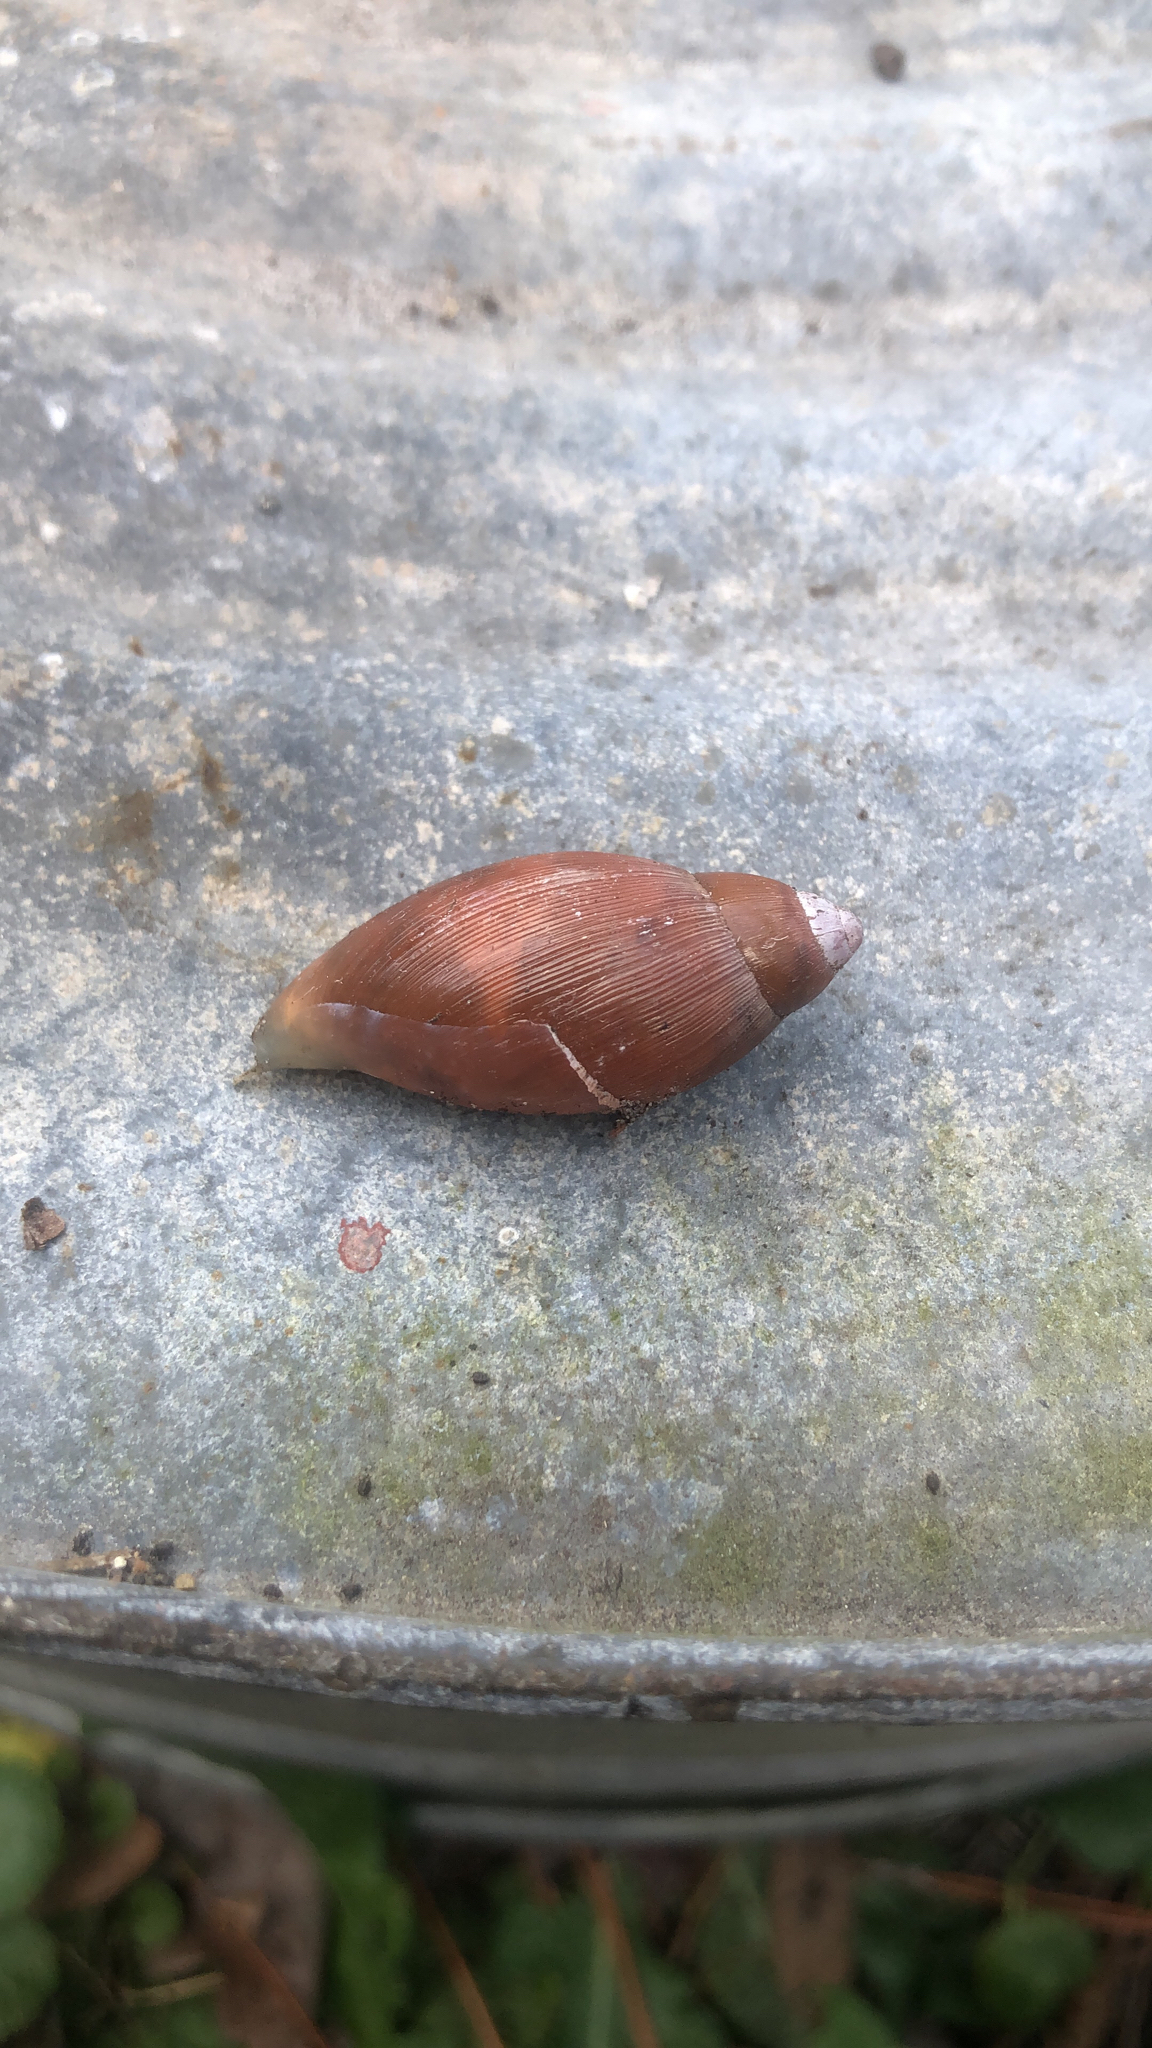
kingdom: Animalia
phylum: Mollusca
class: Gastropoda
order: Stylommatophora
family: Spiraxidae
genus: Euglandina
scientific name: Euglandina rosea
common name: Rosy wolfsnail
